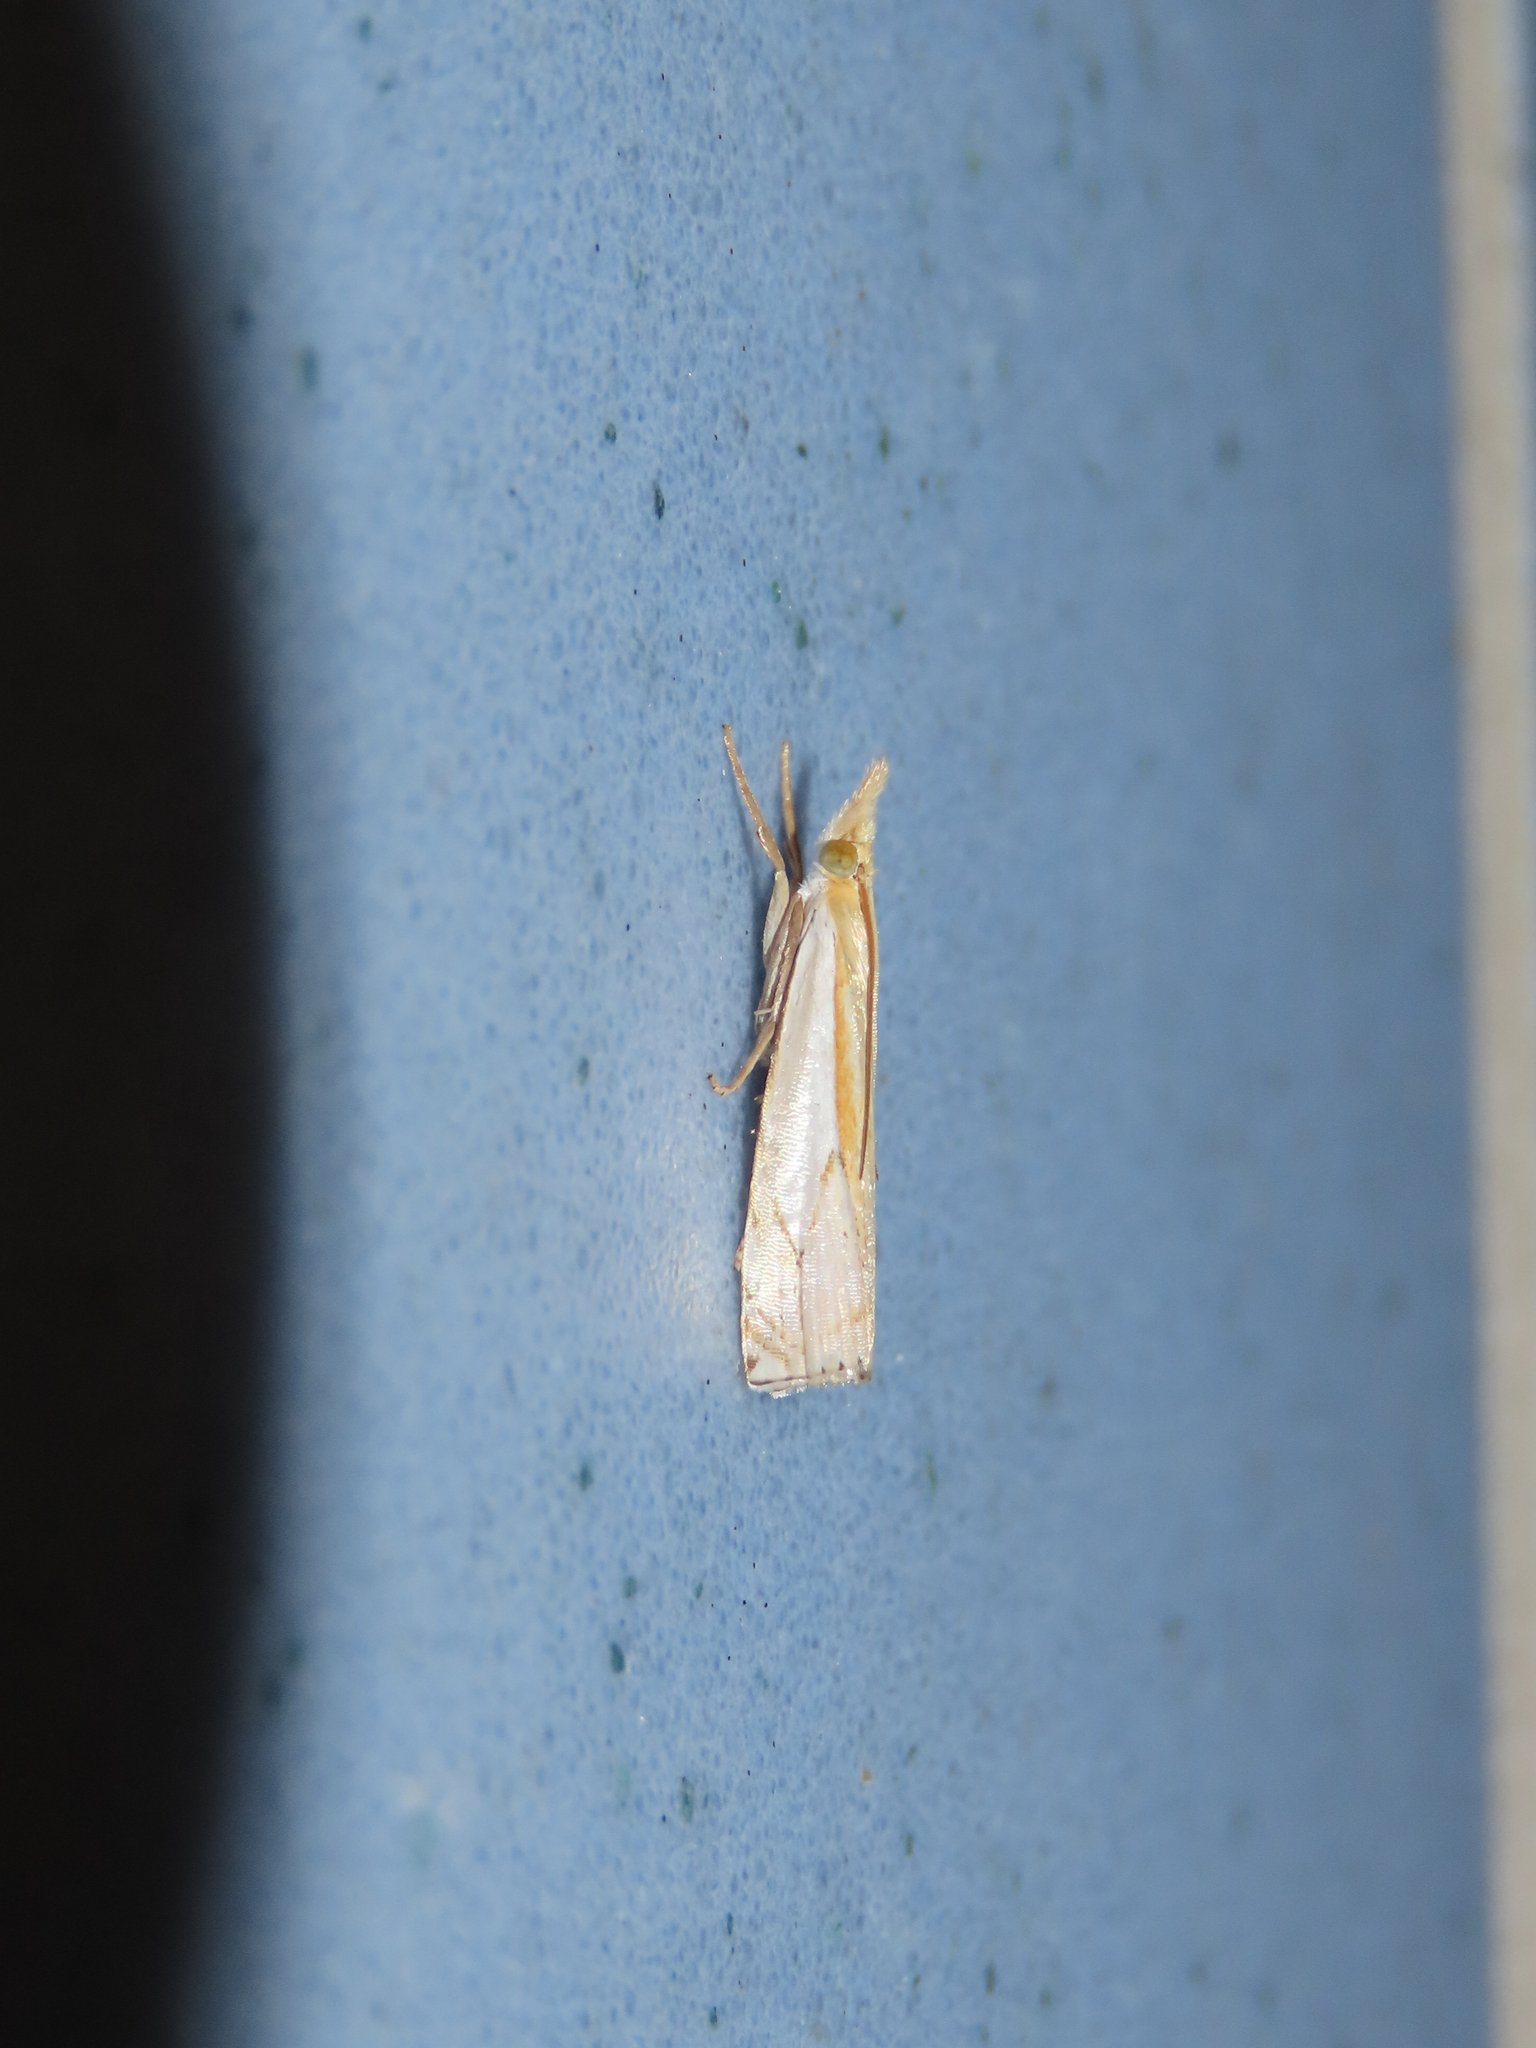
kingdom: Animalia
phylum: Arthropoda
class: Insecta
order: Lepidoptera
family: Crambidae
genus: Crambus
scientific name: Crambus agitatellus
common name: Double-banded grass-veneer
